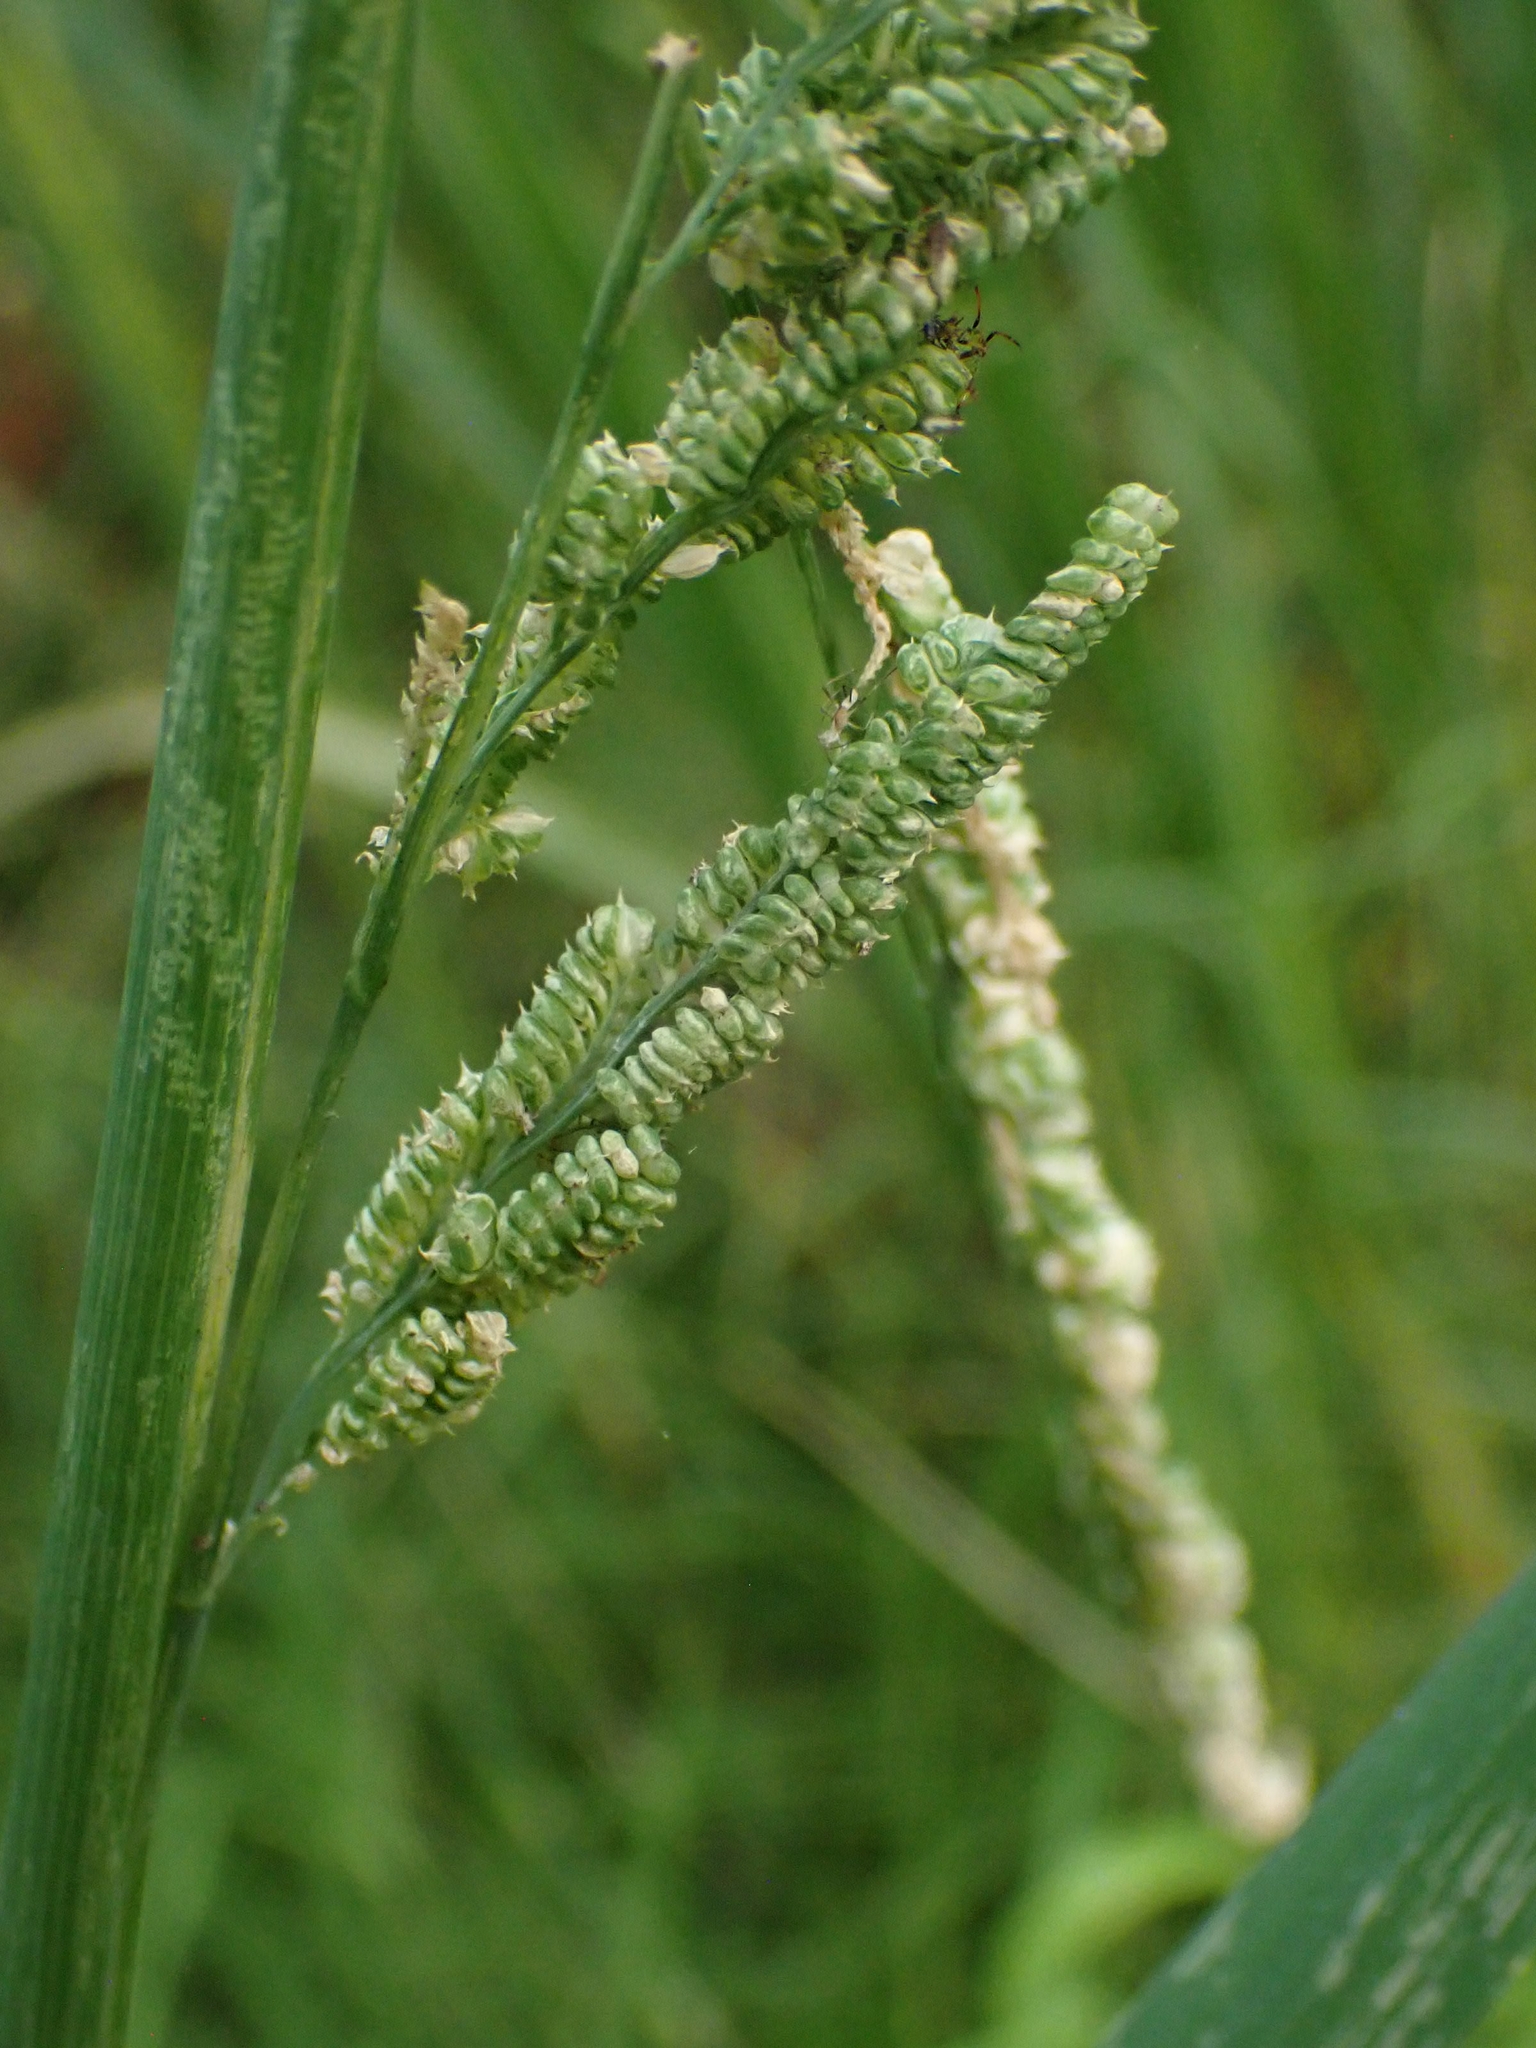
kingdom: Plantae
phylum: Tracheophyta
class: Liliopsida
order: Poales
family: Poaceae
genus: Beckmannia
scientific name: Beckmannia syzigachne
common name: American slough-grass
